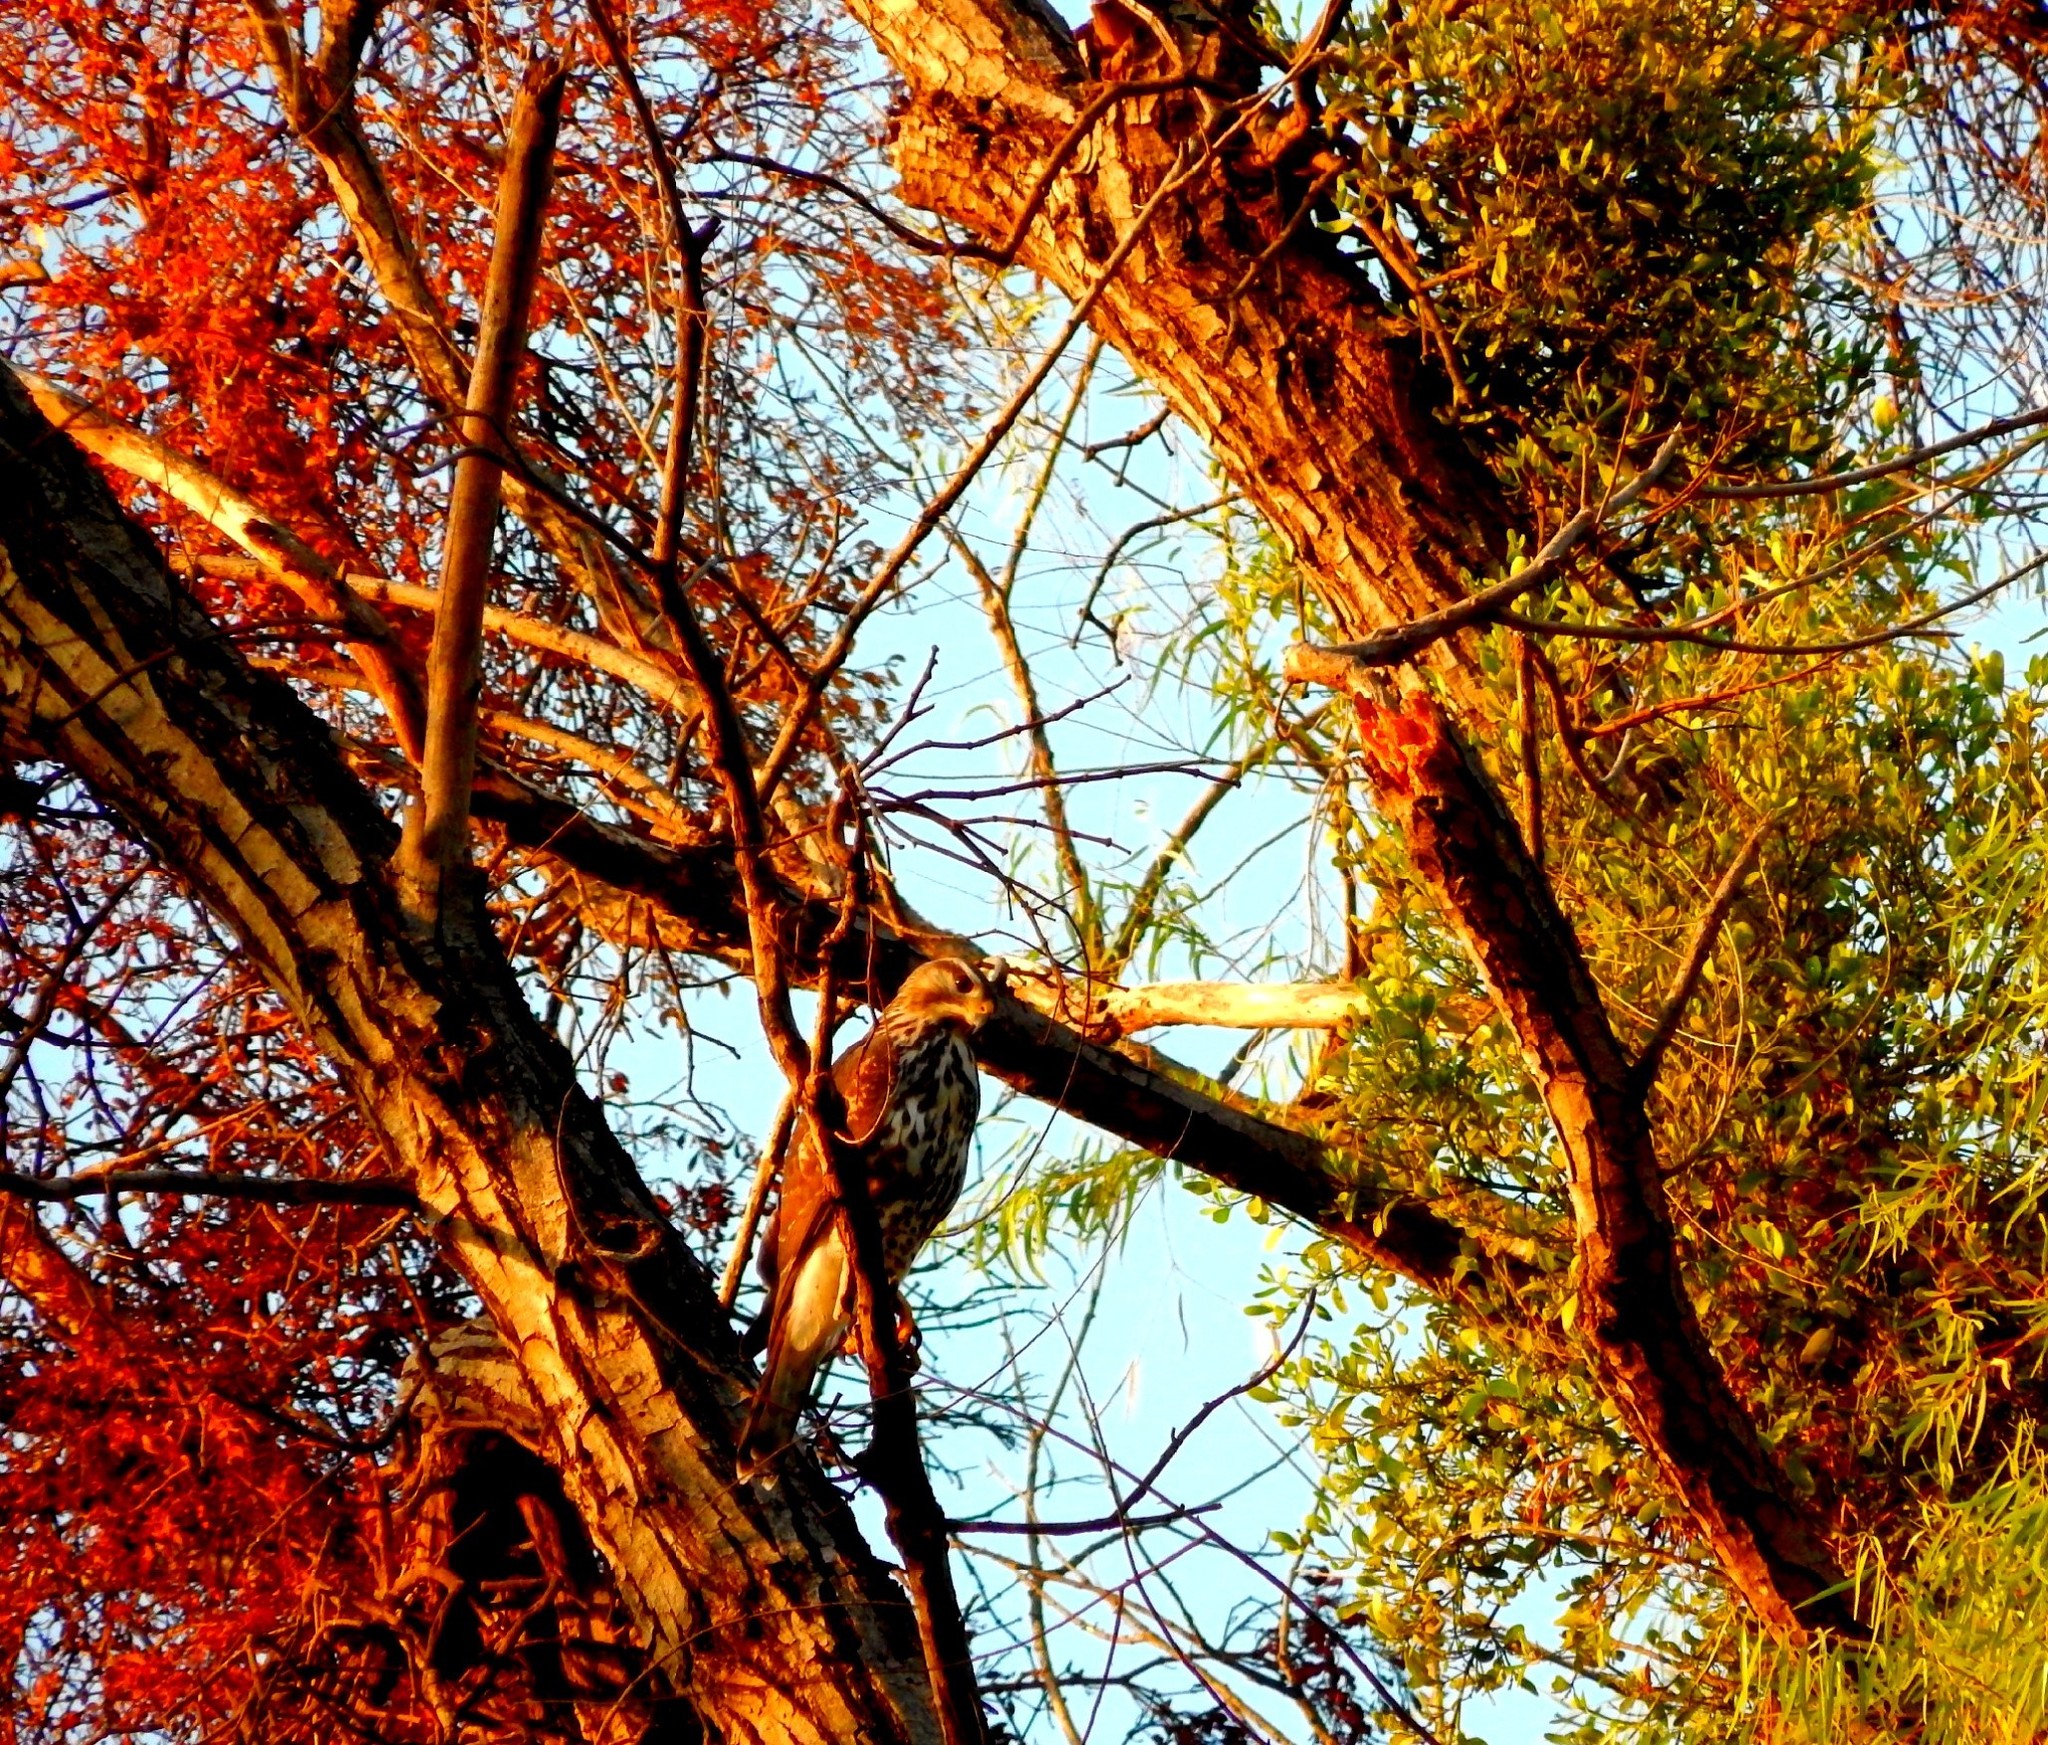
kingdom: Animalia
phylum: Chordata
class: Aves
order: Accipitriformes
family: Accipitridae
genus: Buteo
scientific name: Buteo nitidus
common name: Grey-lined hawk
